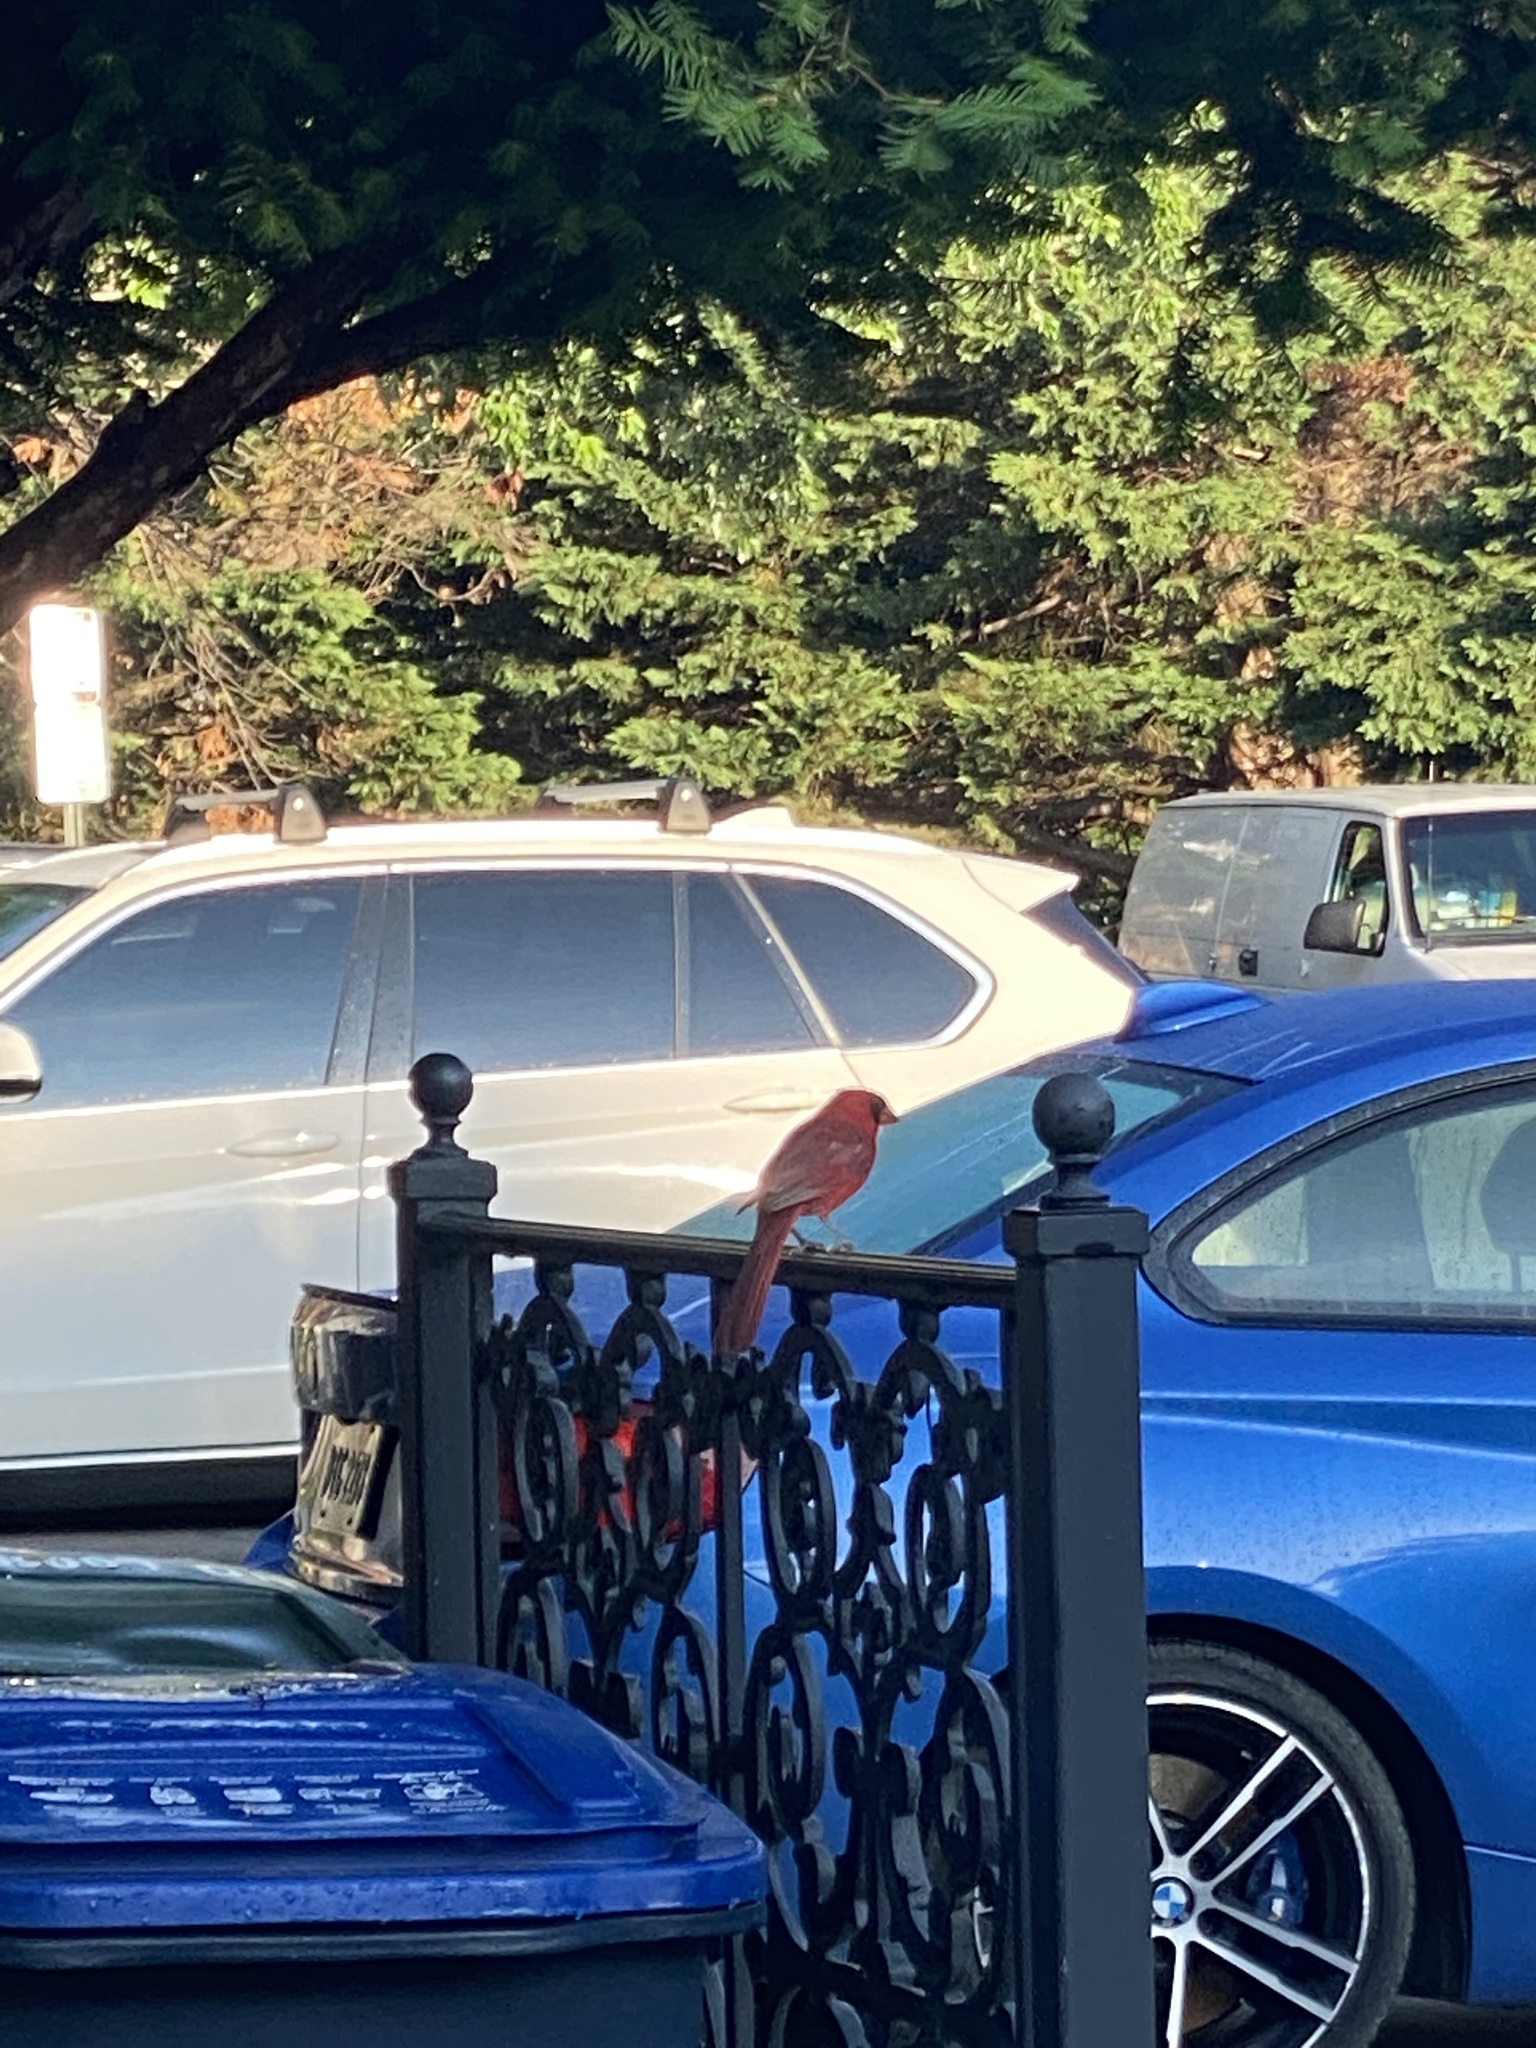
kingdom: Animalia
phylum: Chordata
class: Aves
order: Passeriformes
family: Cardinalidae
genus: Cardinalis
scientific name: Cardinalis cardinalis
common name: Northern cardinal
